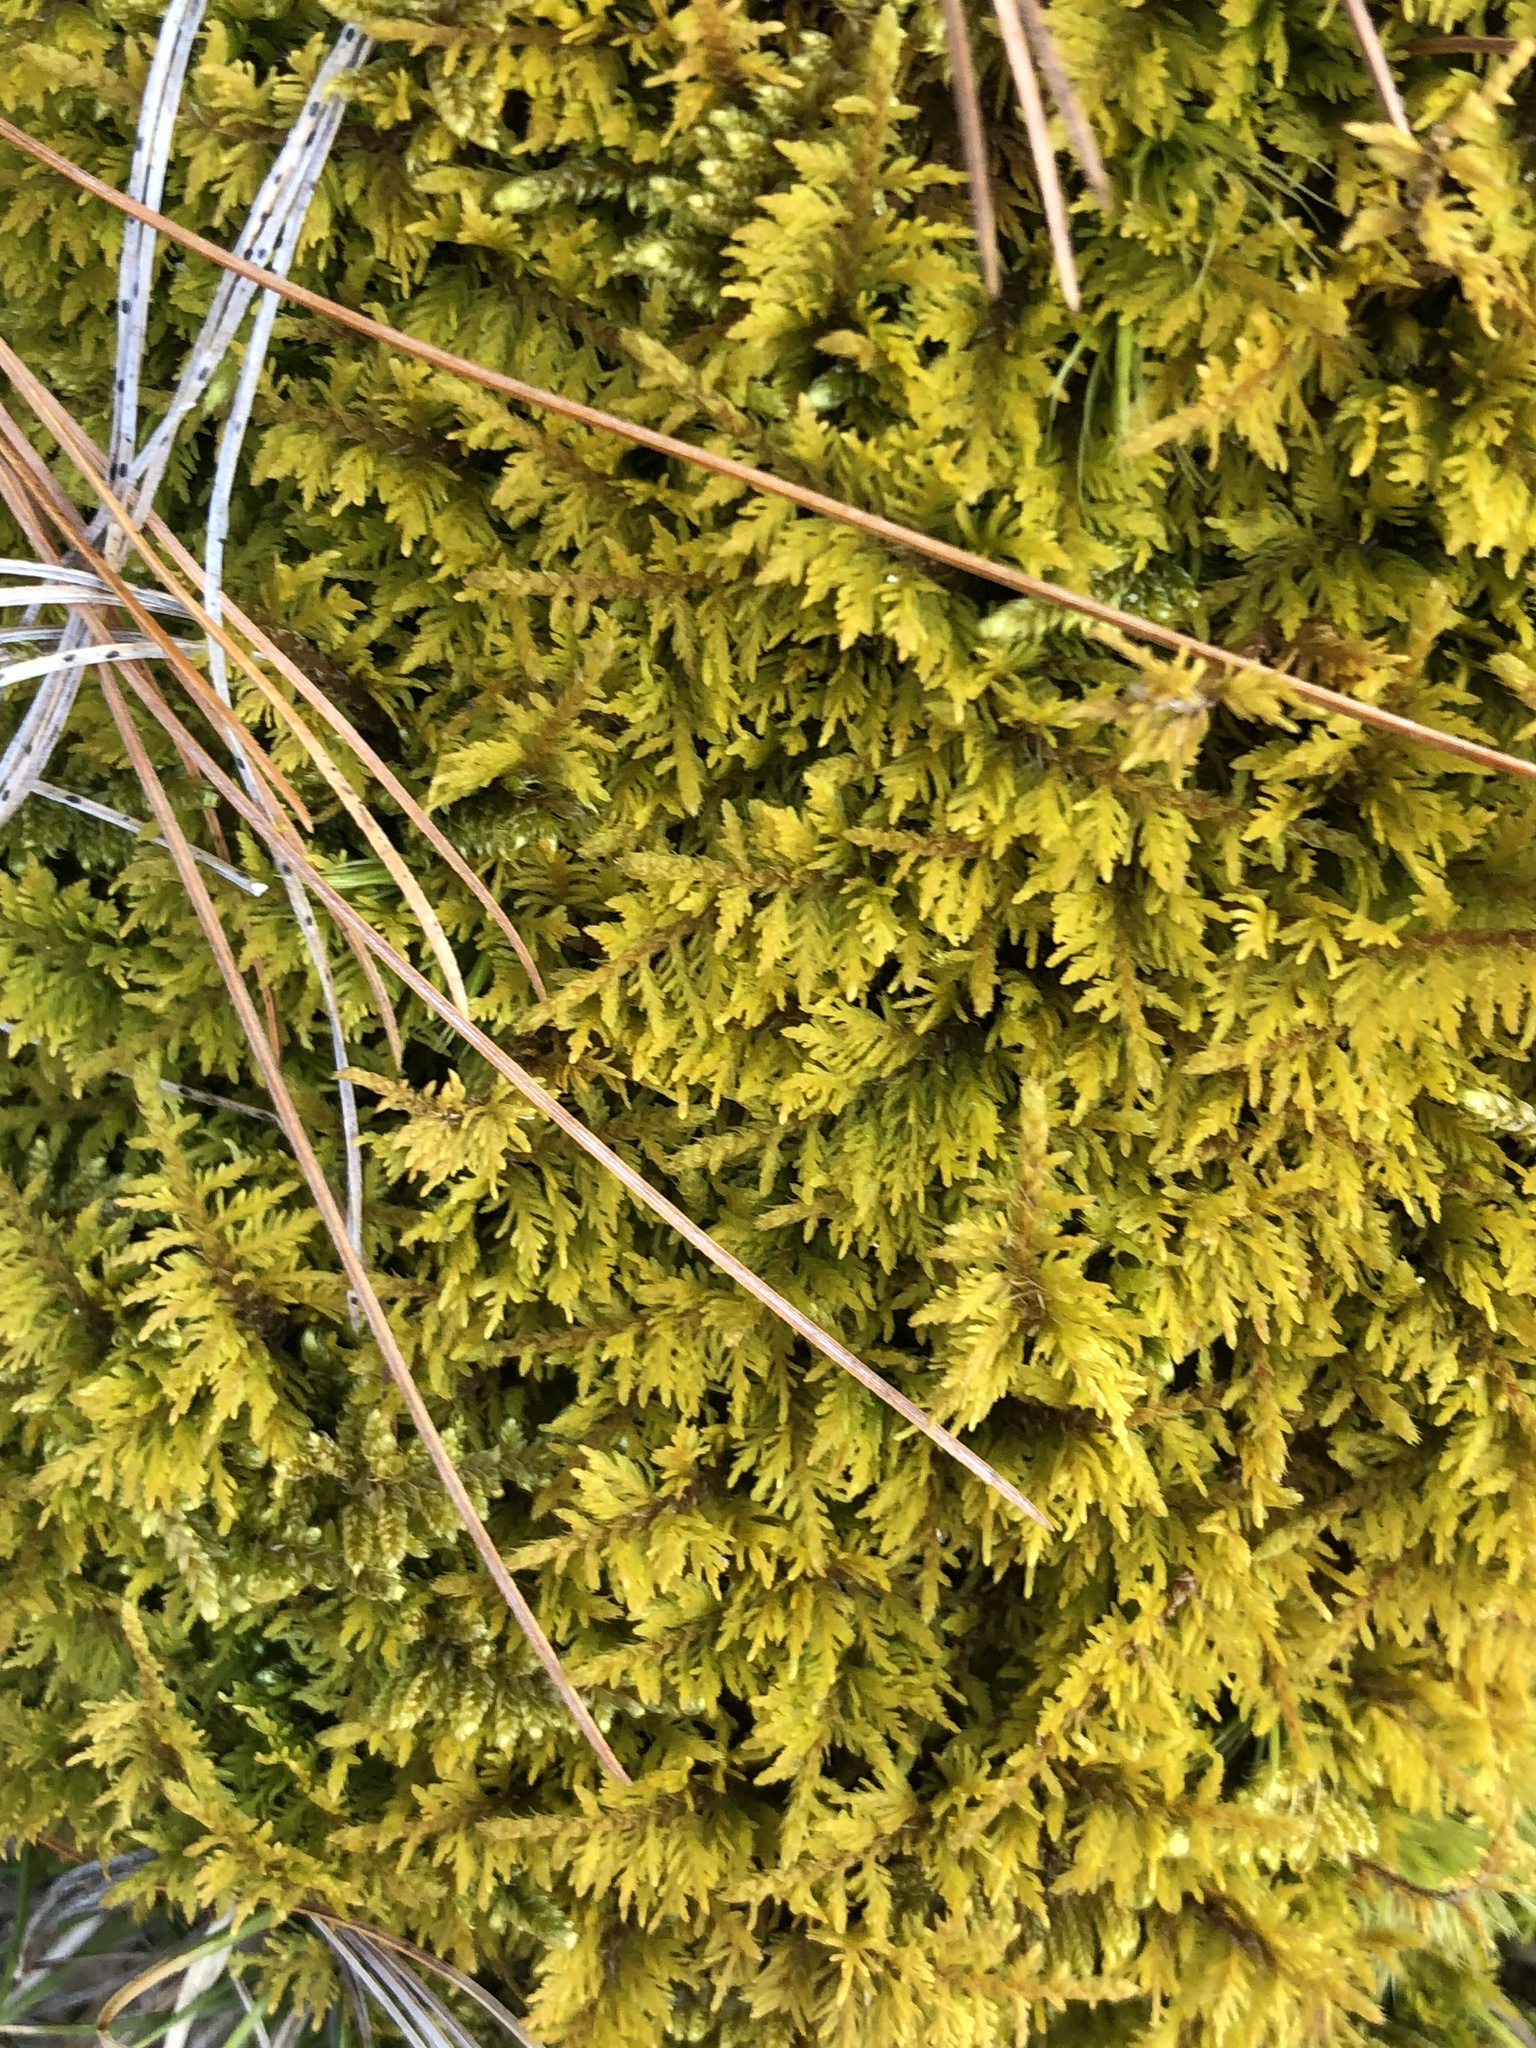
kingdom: Plantae
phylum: Bryophyta
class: Bryopsida
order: Hypnales
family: Thuidiaceae
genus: Thuidium
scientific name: Thuidium delicatulum
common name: Delicate fern moss
